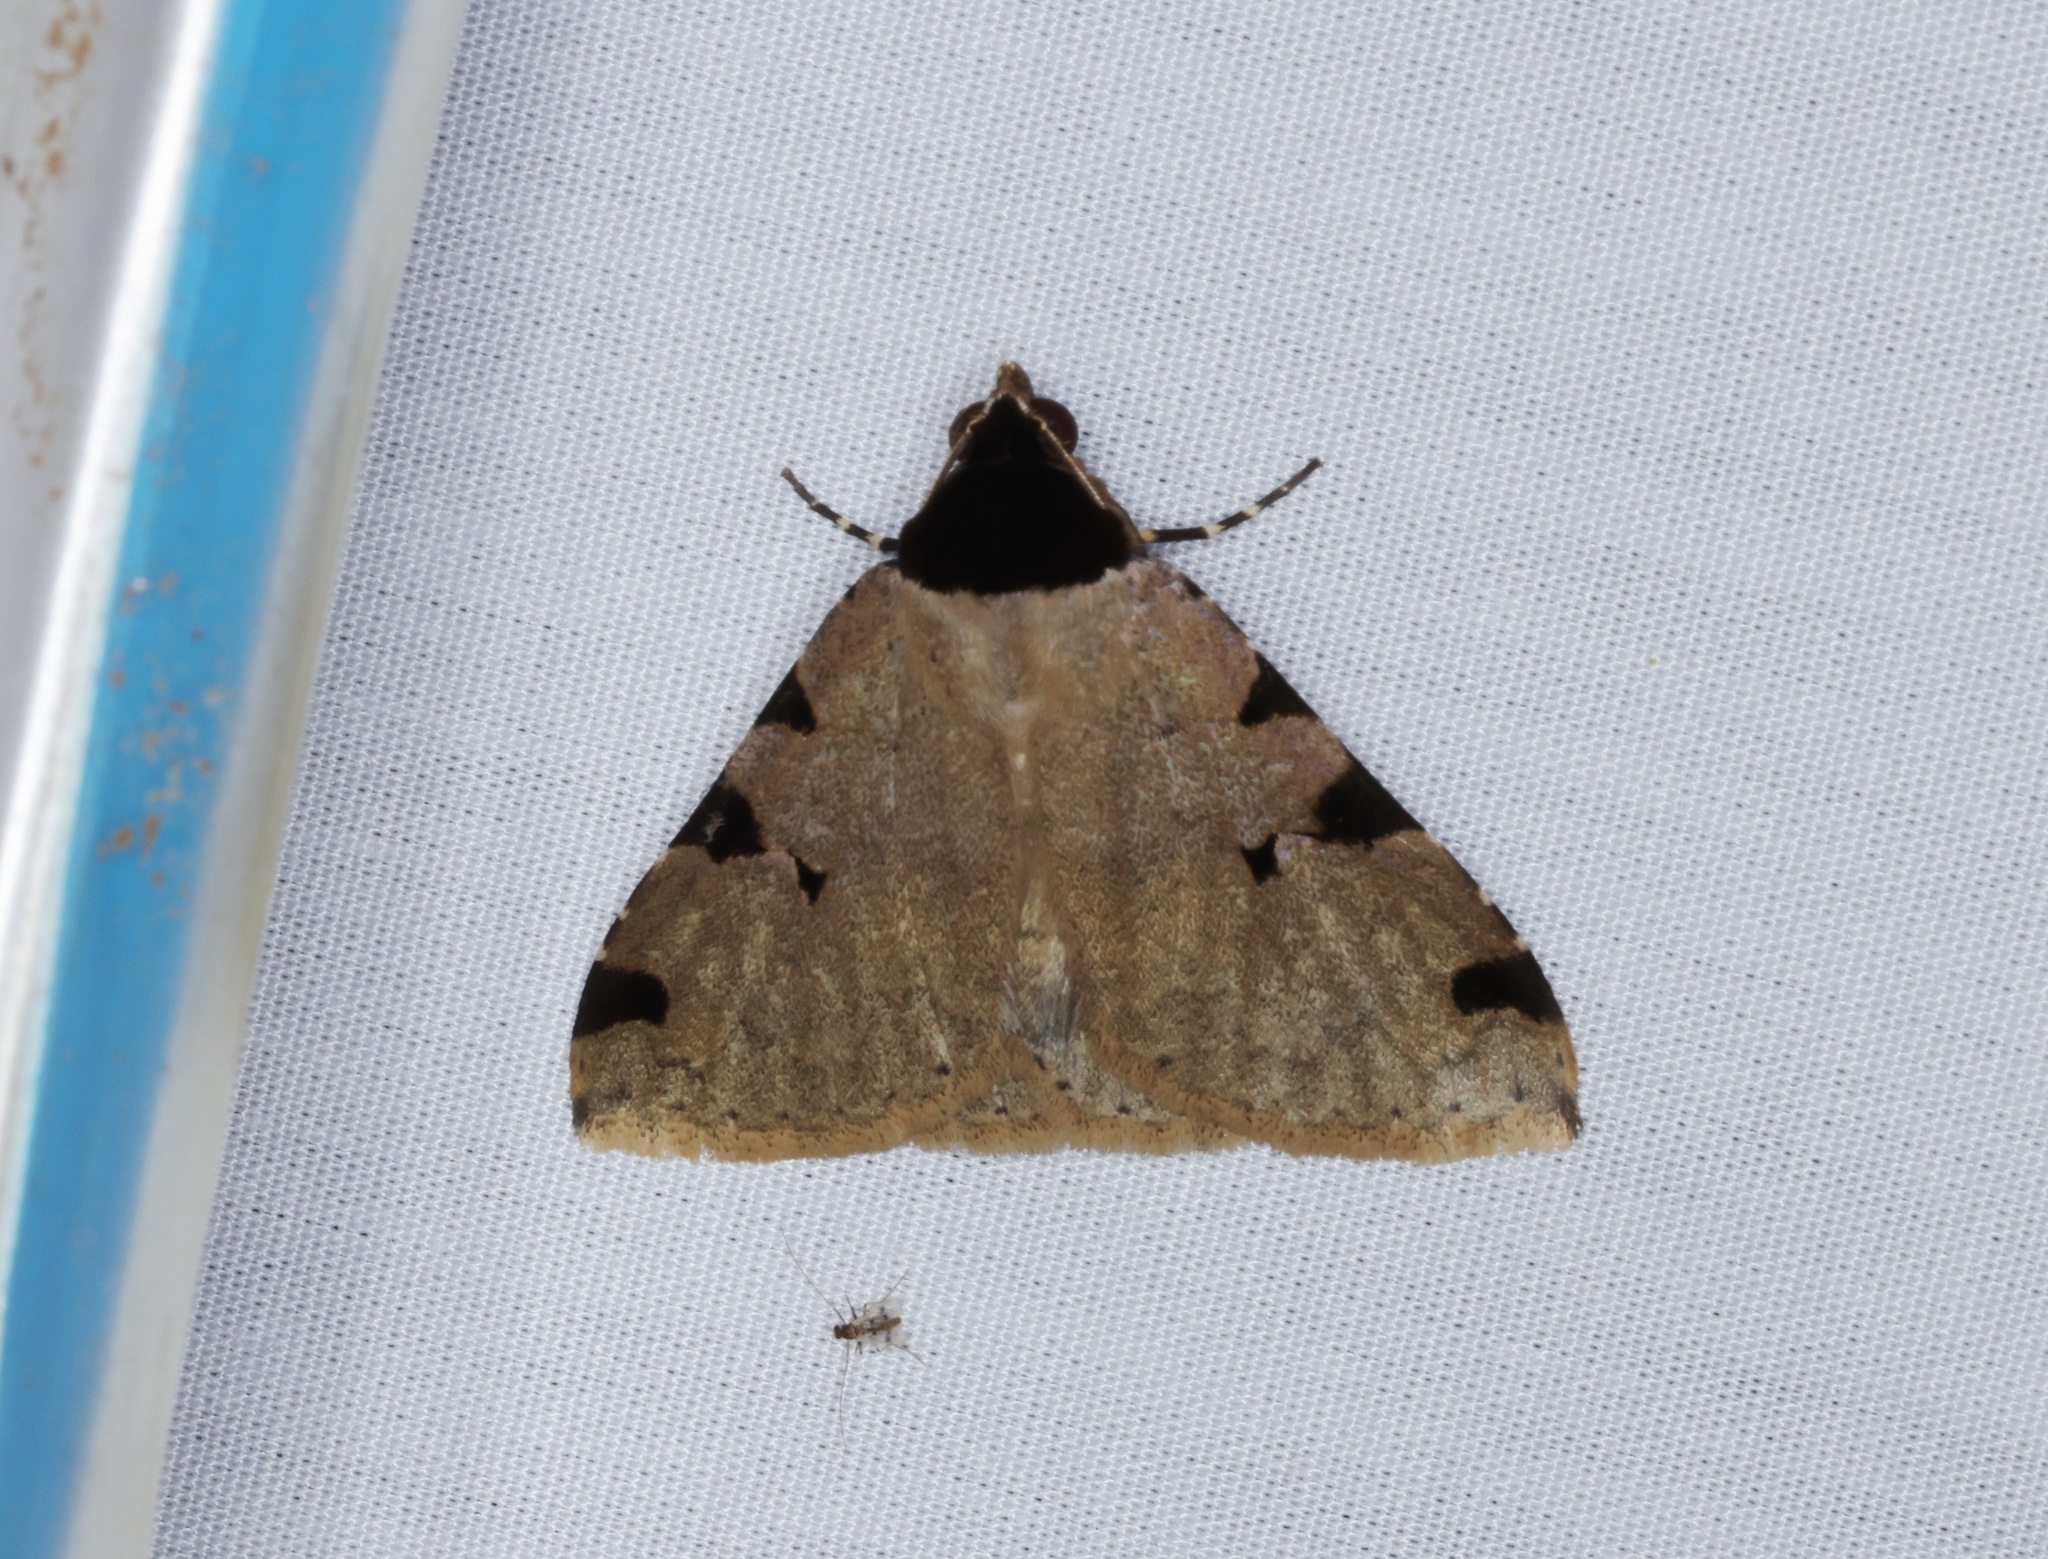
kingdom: Animalia
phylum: Arthropoda
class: Insecta
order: Lepidoptera
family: Erebidae
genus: Rema
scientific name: Rema costimacula
